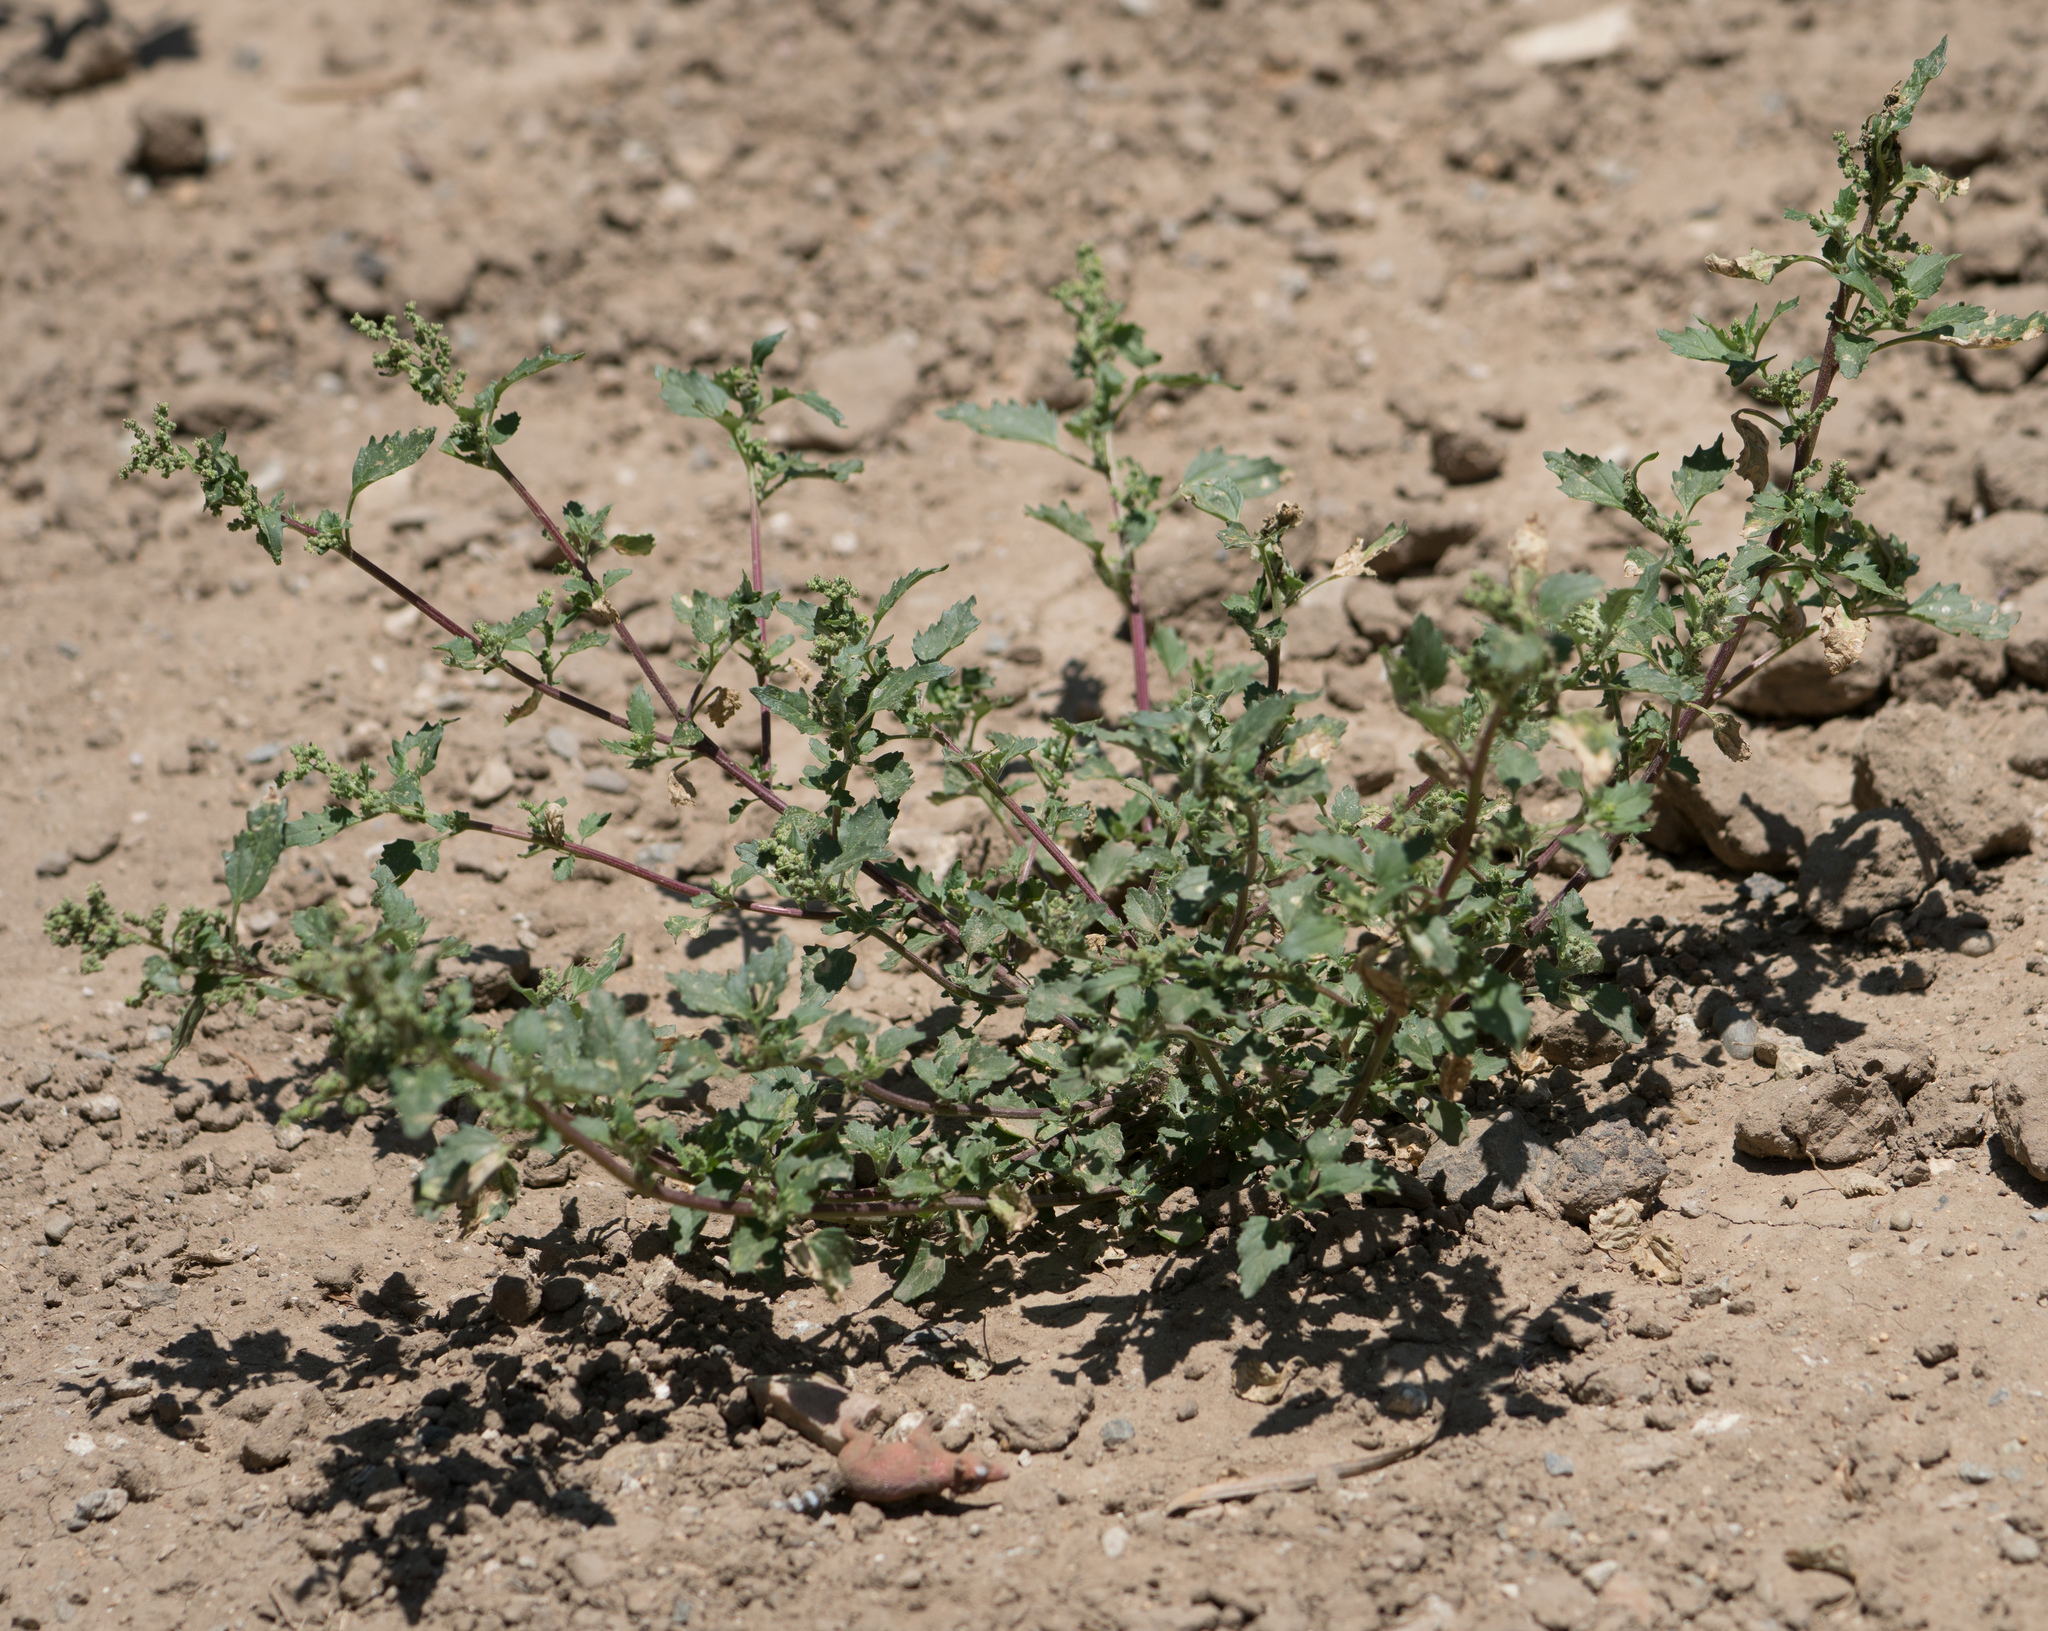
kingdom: Plantae
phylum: Tracheophyta
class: Magnoliopsida
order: Caryophyllales
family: Amaranthaceae
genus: Chenopodiastrum
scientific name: Chenopodiastrum murale
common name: Sowbane
